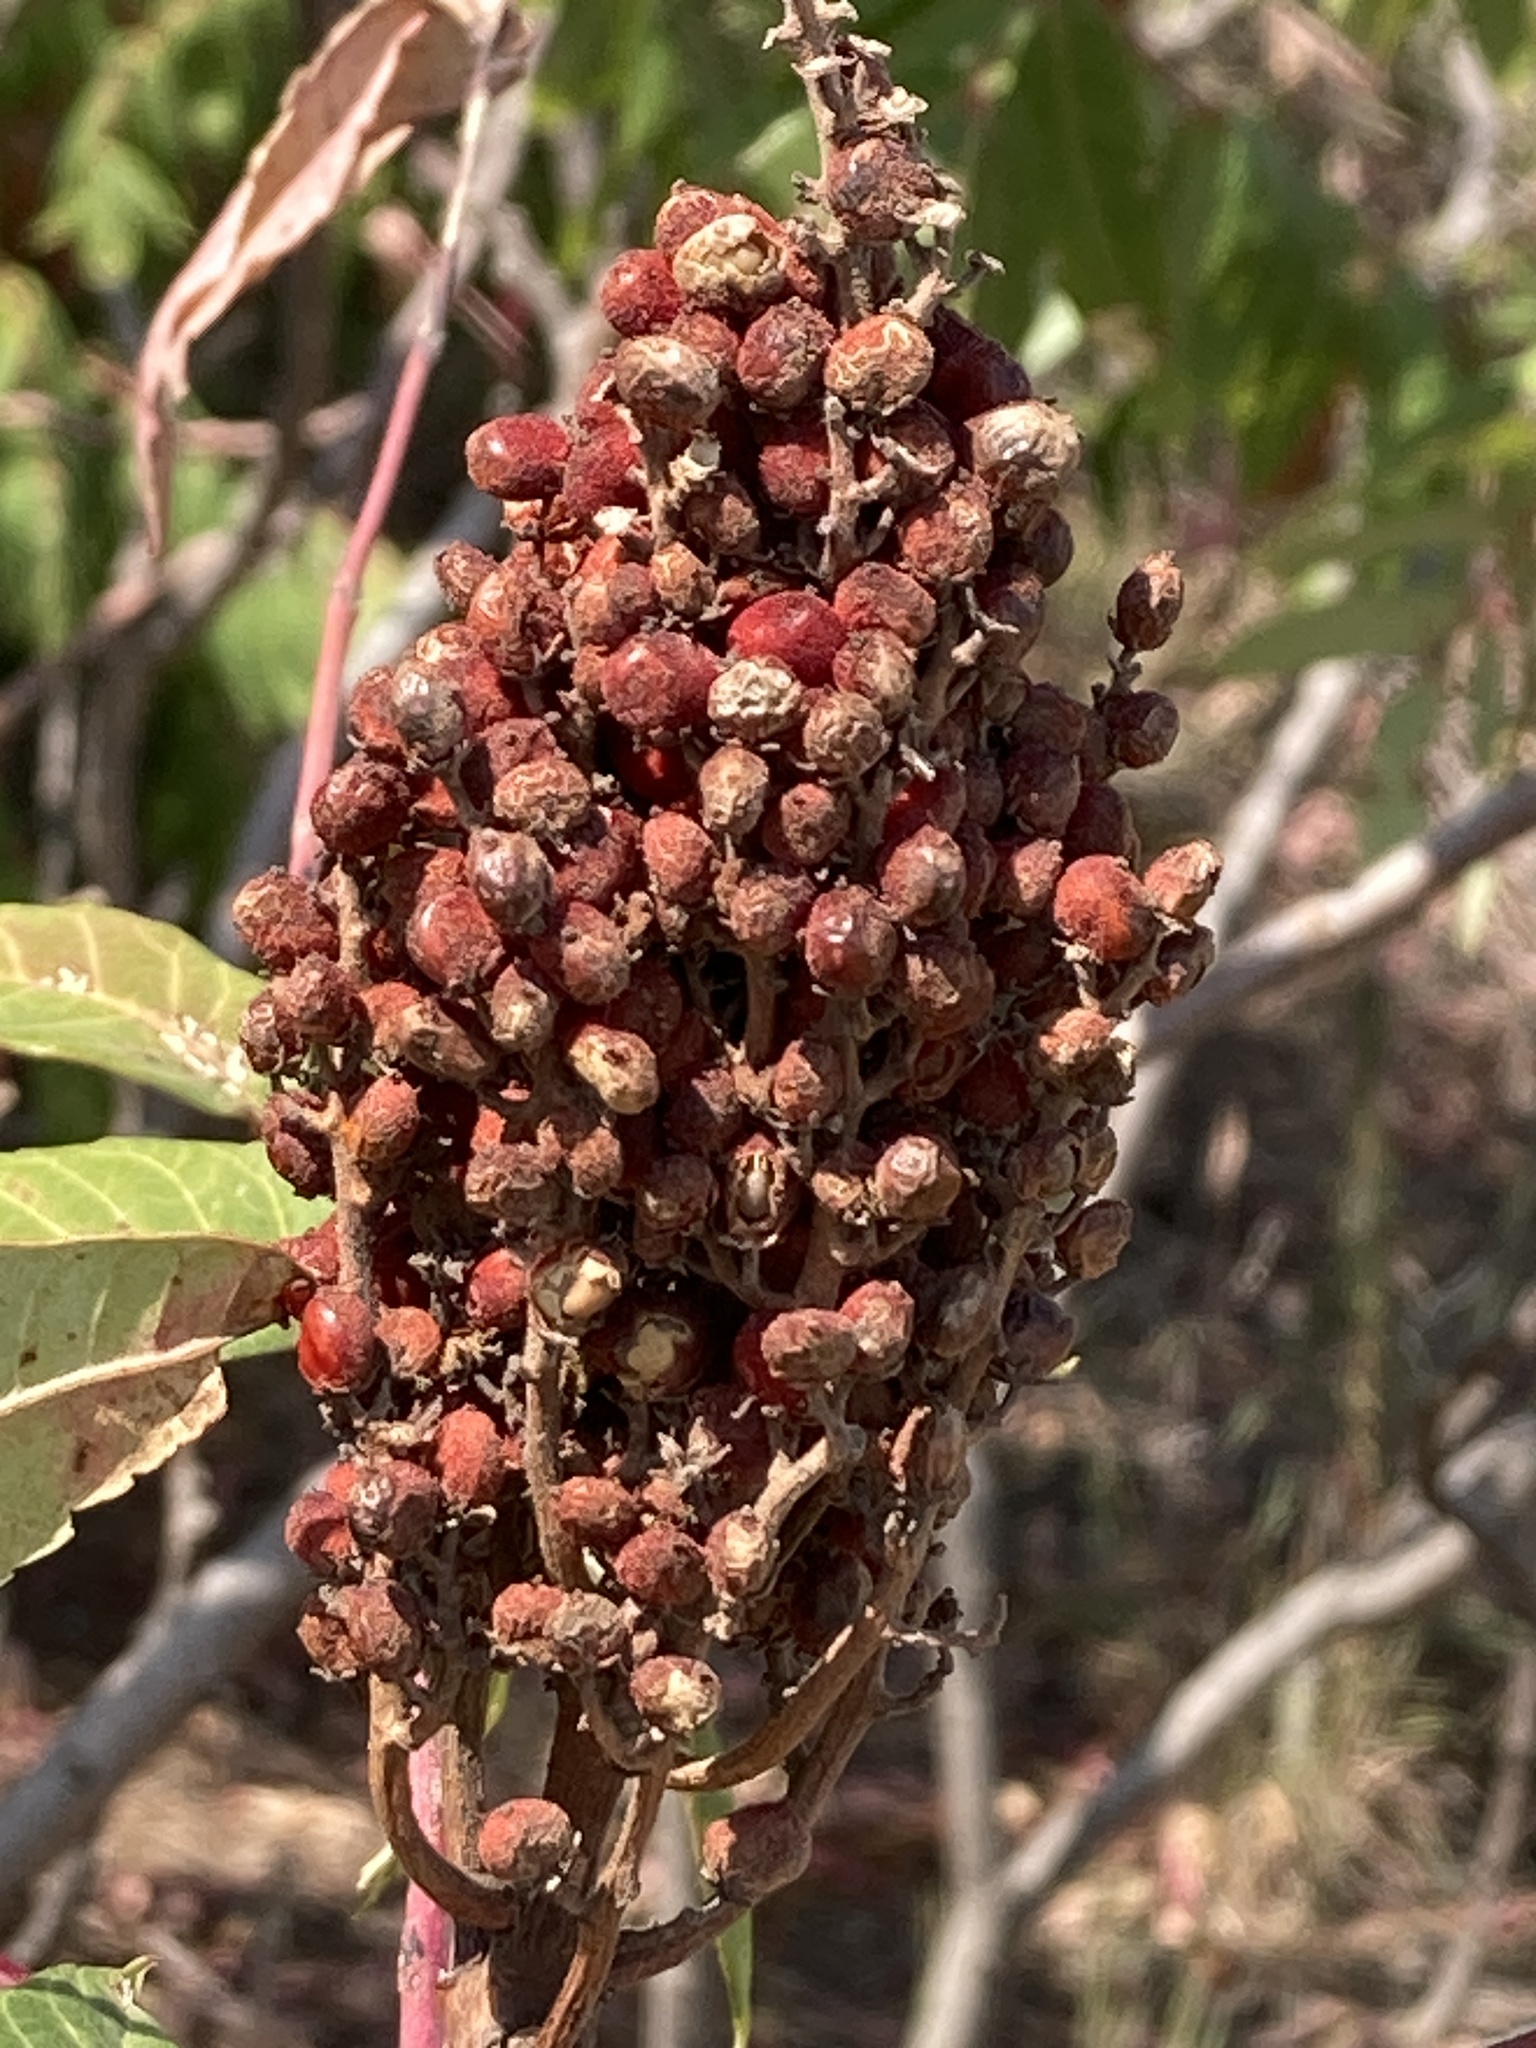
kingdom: Plantae
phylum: Tracheophyta
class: Magnoliopsida
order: Sapindales
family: Anacardiaceae
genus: Rhus
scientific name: Rhus glabra
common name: Scarlet sumac
